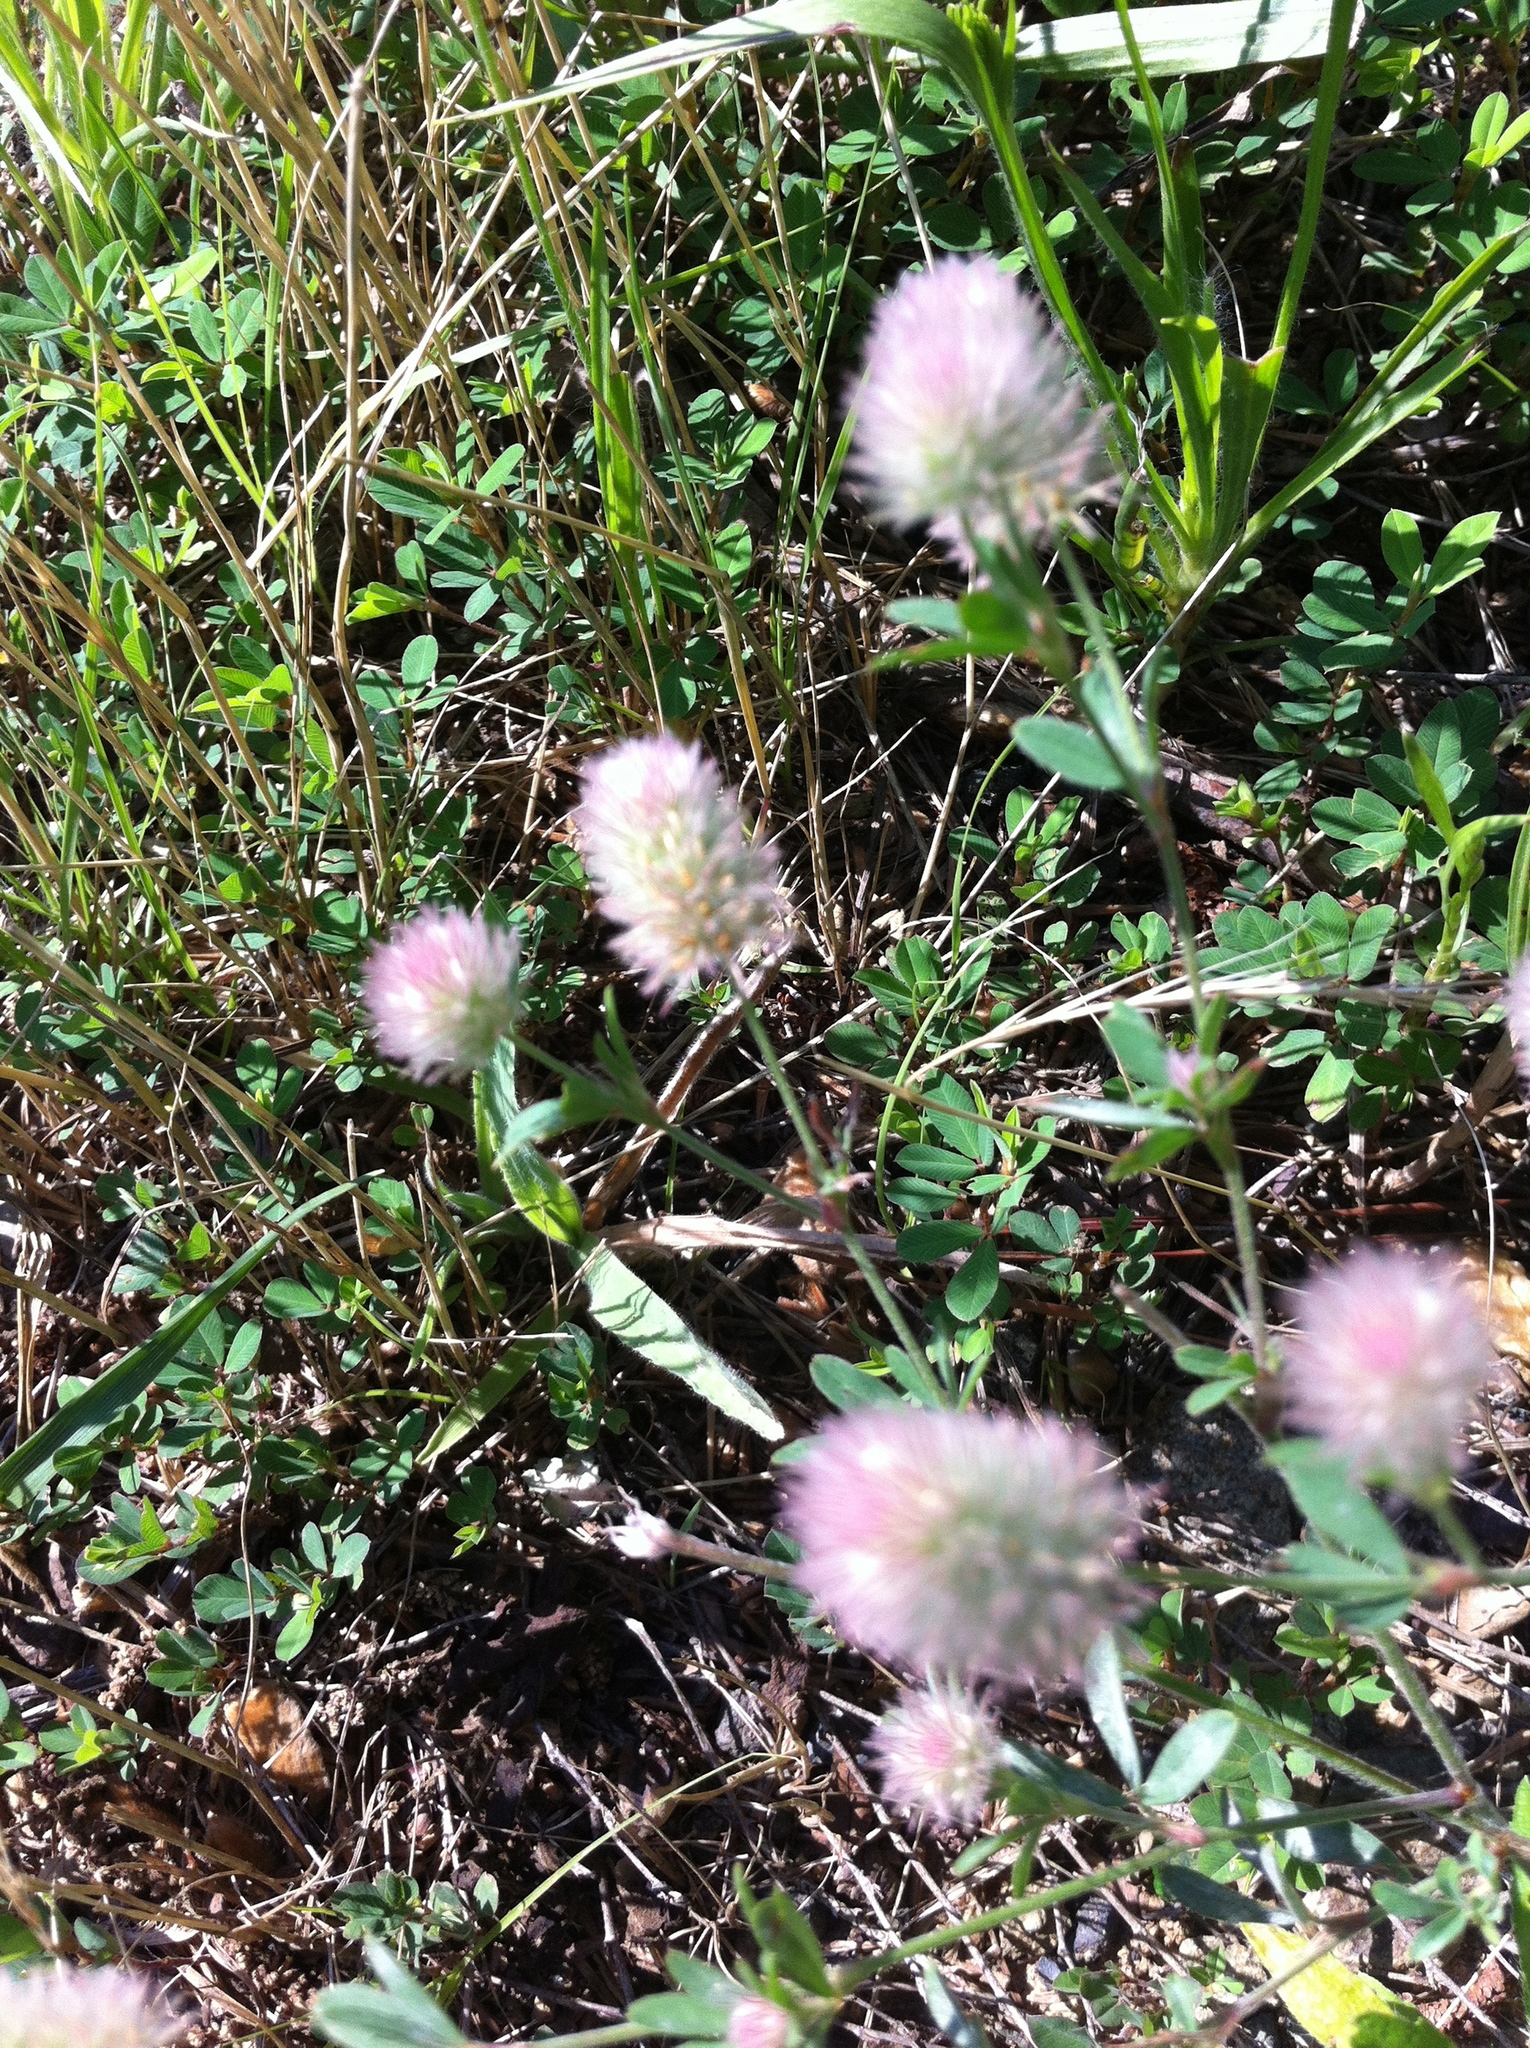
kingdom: Plantae
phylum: Tracheophyta
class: Magnoliopsida
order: Fabales
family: Fabaceae
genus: Trifolium
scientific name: Trifolium arvense
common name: Hare's-foot clover
